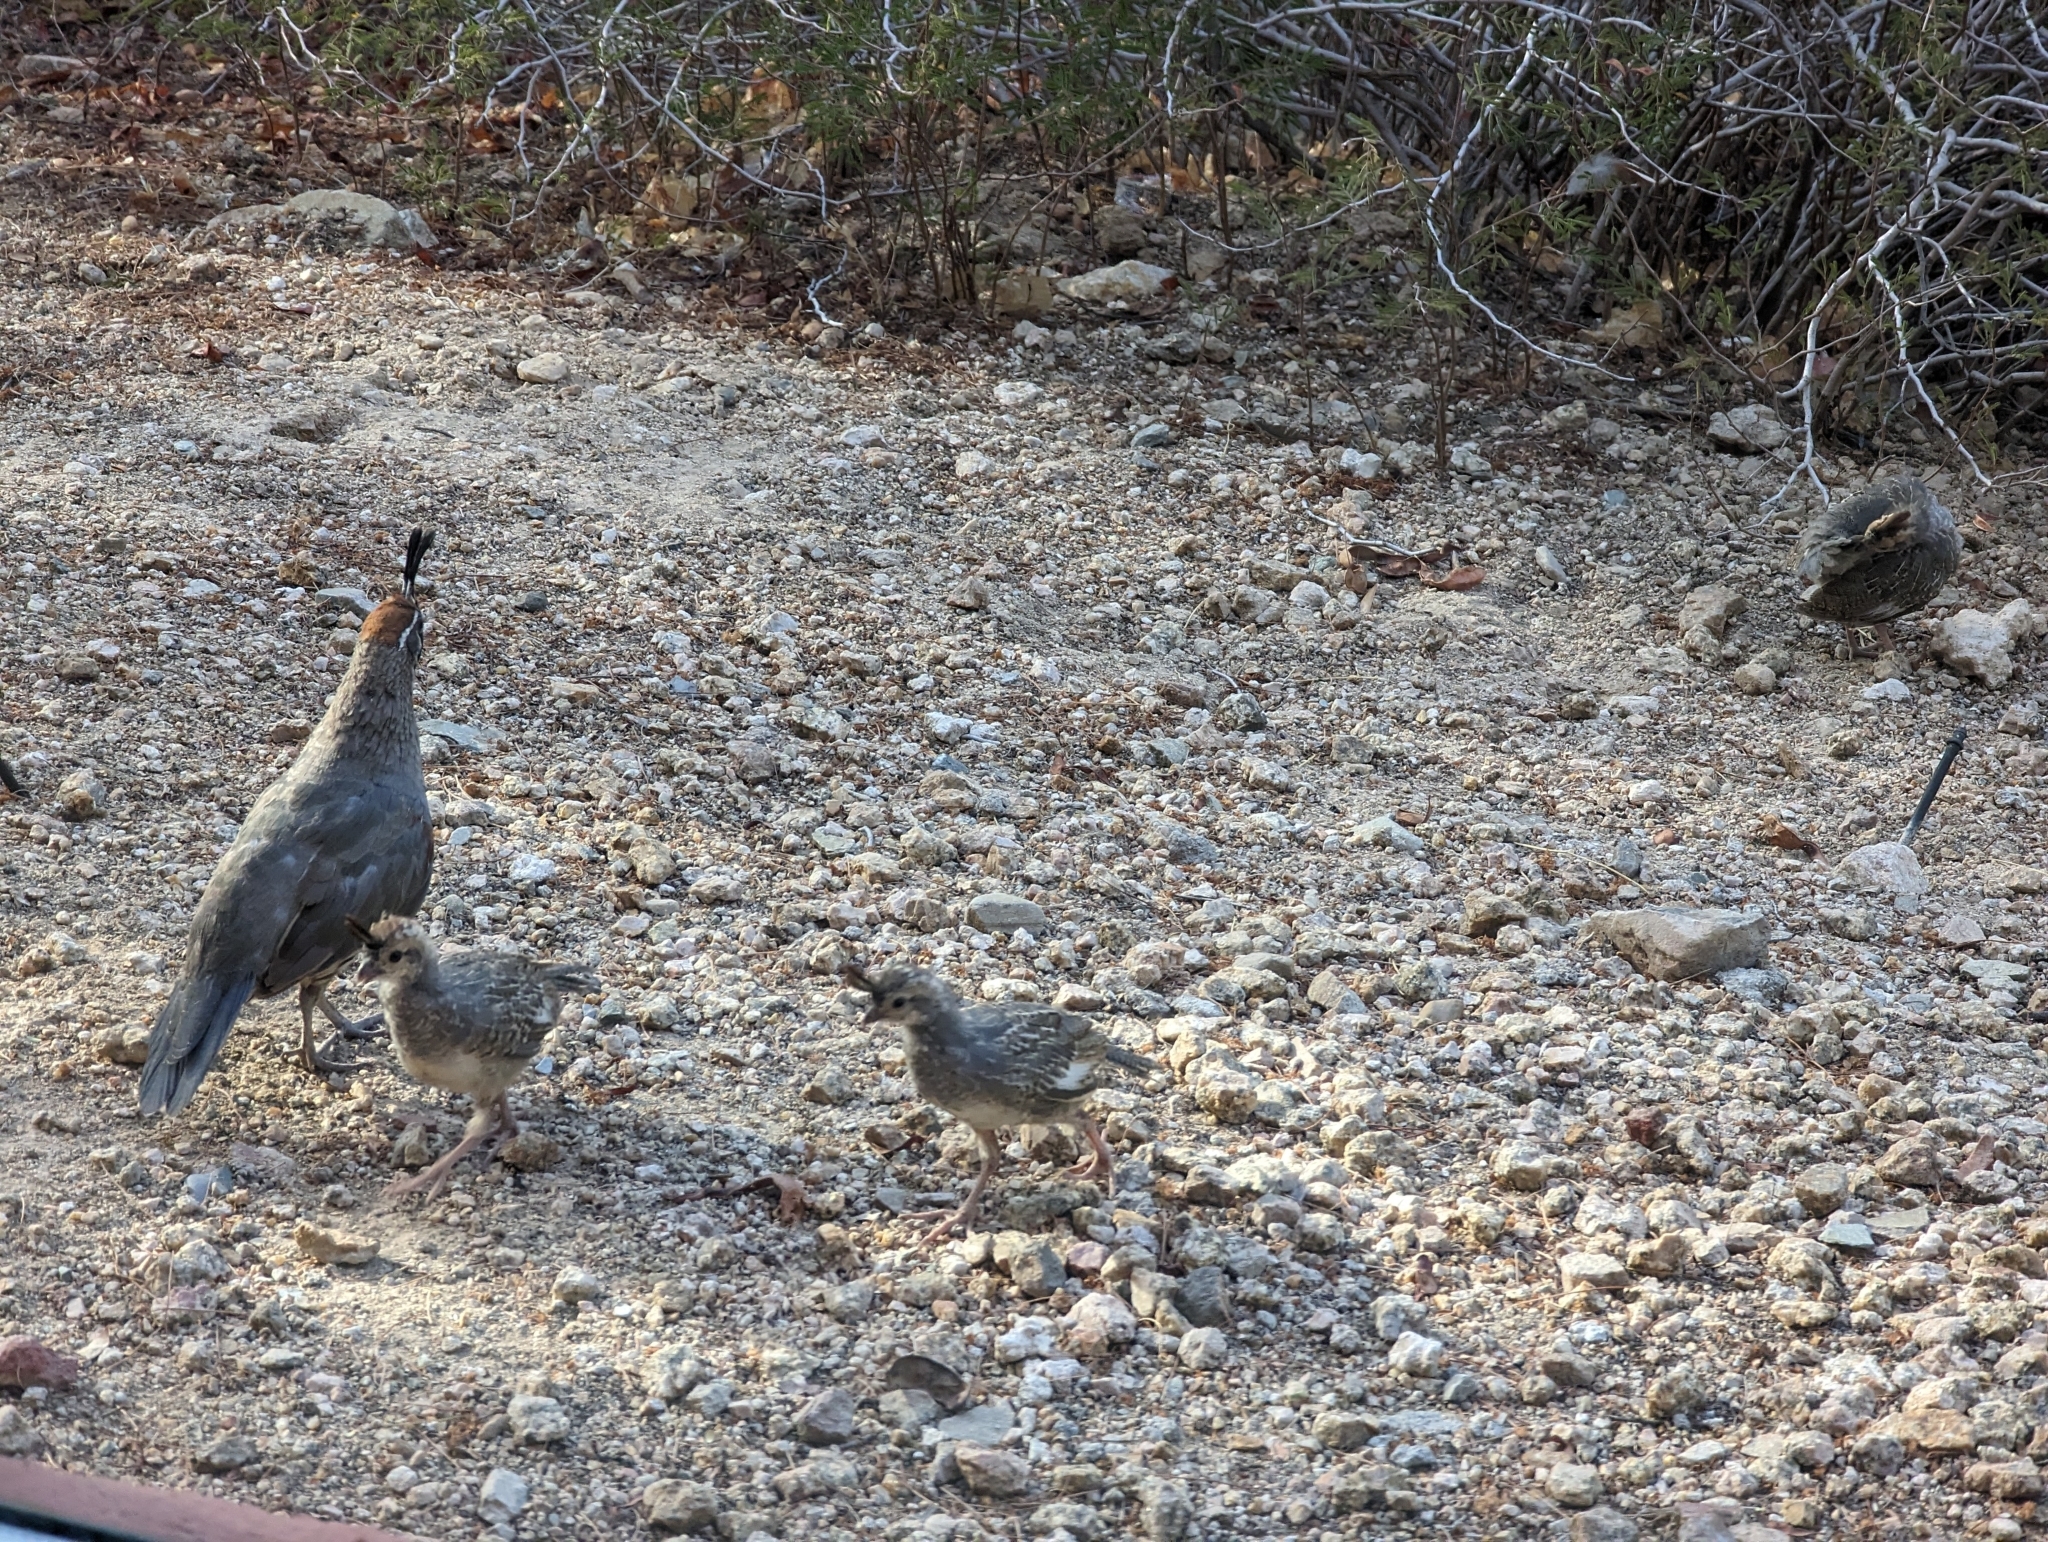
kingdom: Animalia
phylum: Chordata
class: Aves
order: Galliformes
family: Odontophoridae
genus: Callipepla
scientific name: Callipepla gambelii
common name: Gambel's quail
